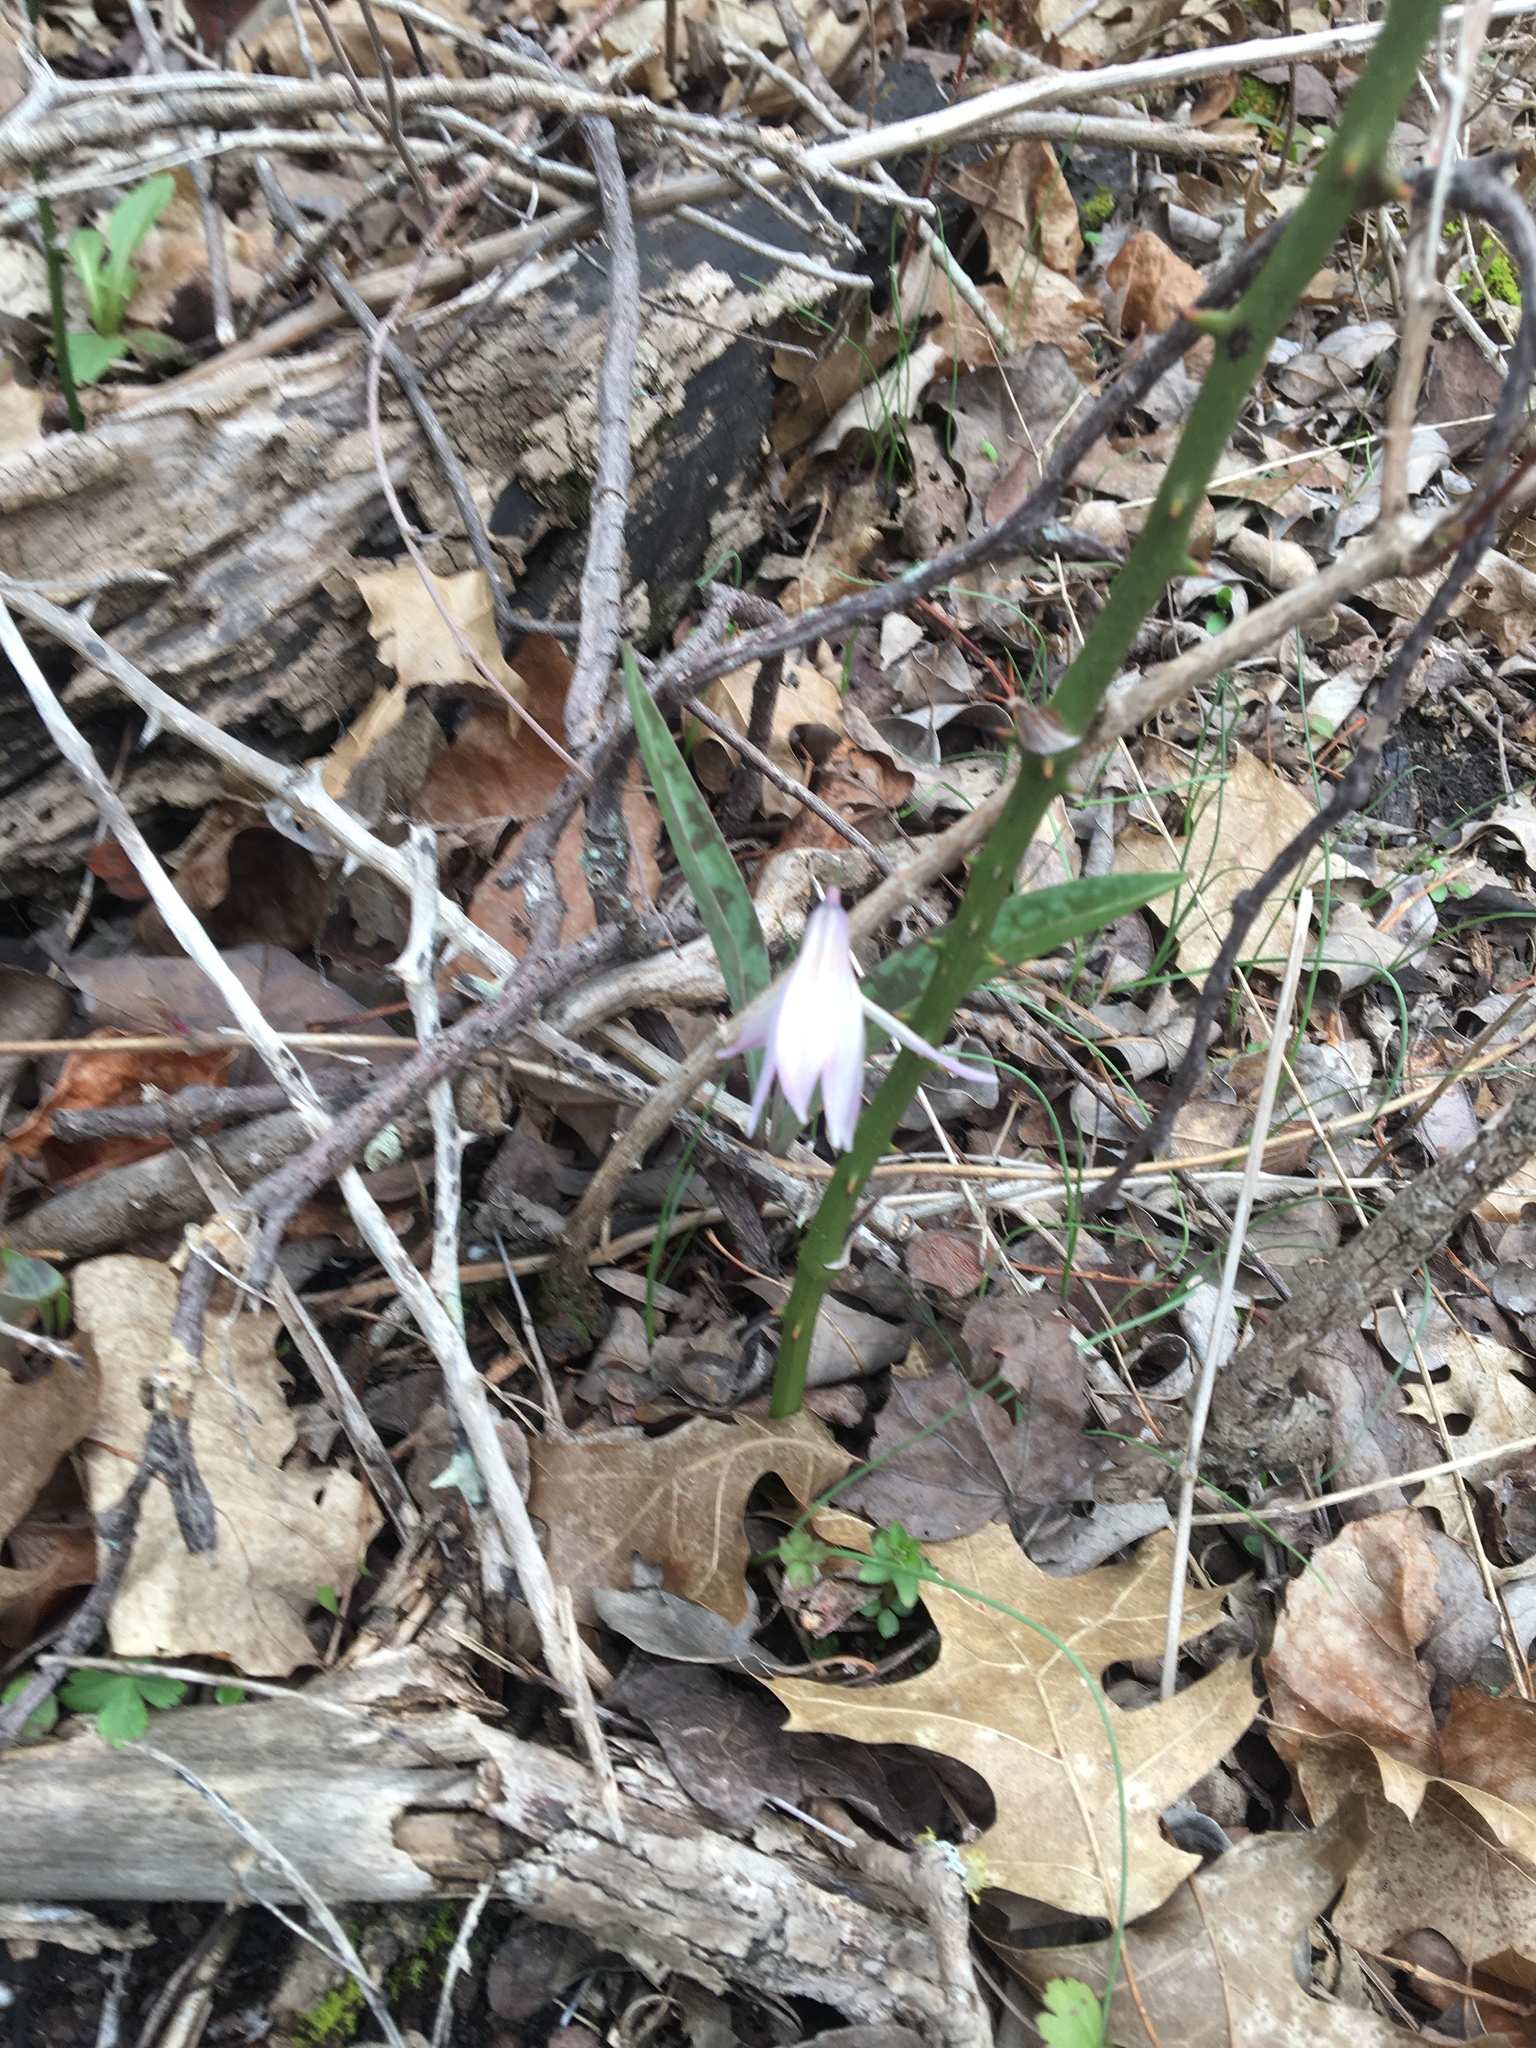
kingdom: Plantae
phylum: Tracheophyta
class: Liliopsida
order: Liliales
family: Liliaceae
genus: Erythronium
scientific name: Erythronium albidum
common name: White trout-lily
